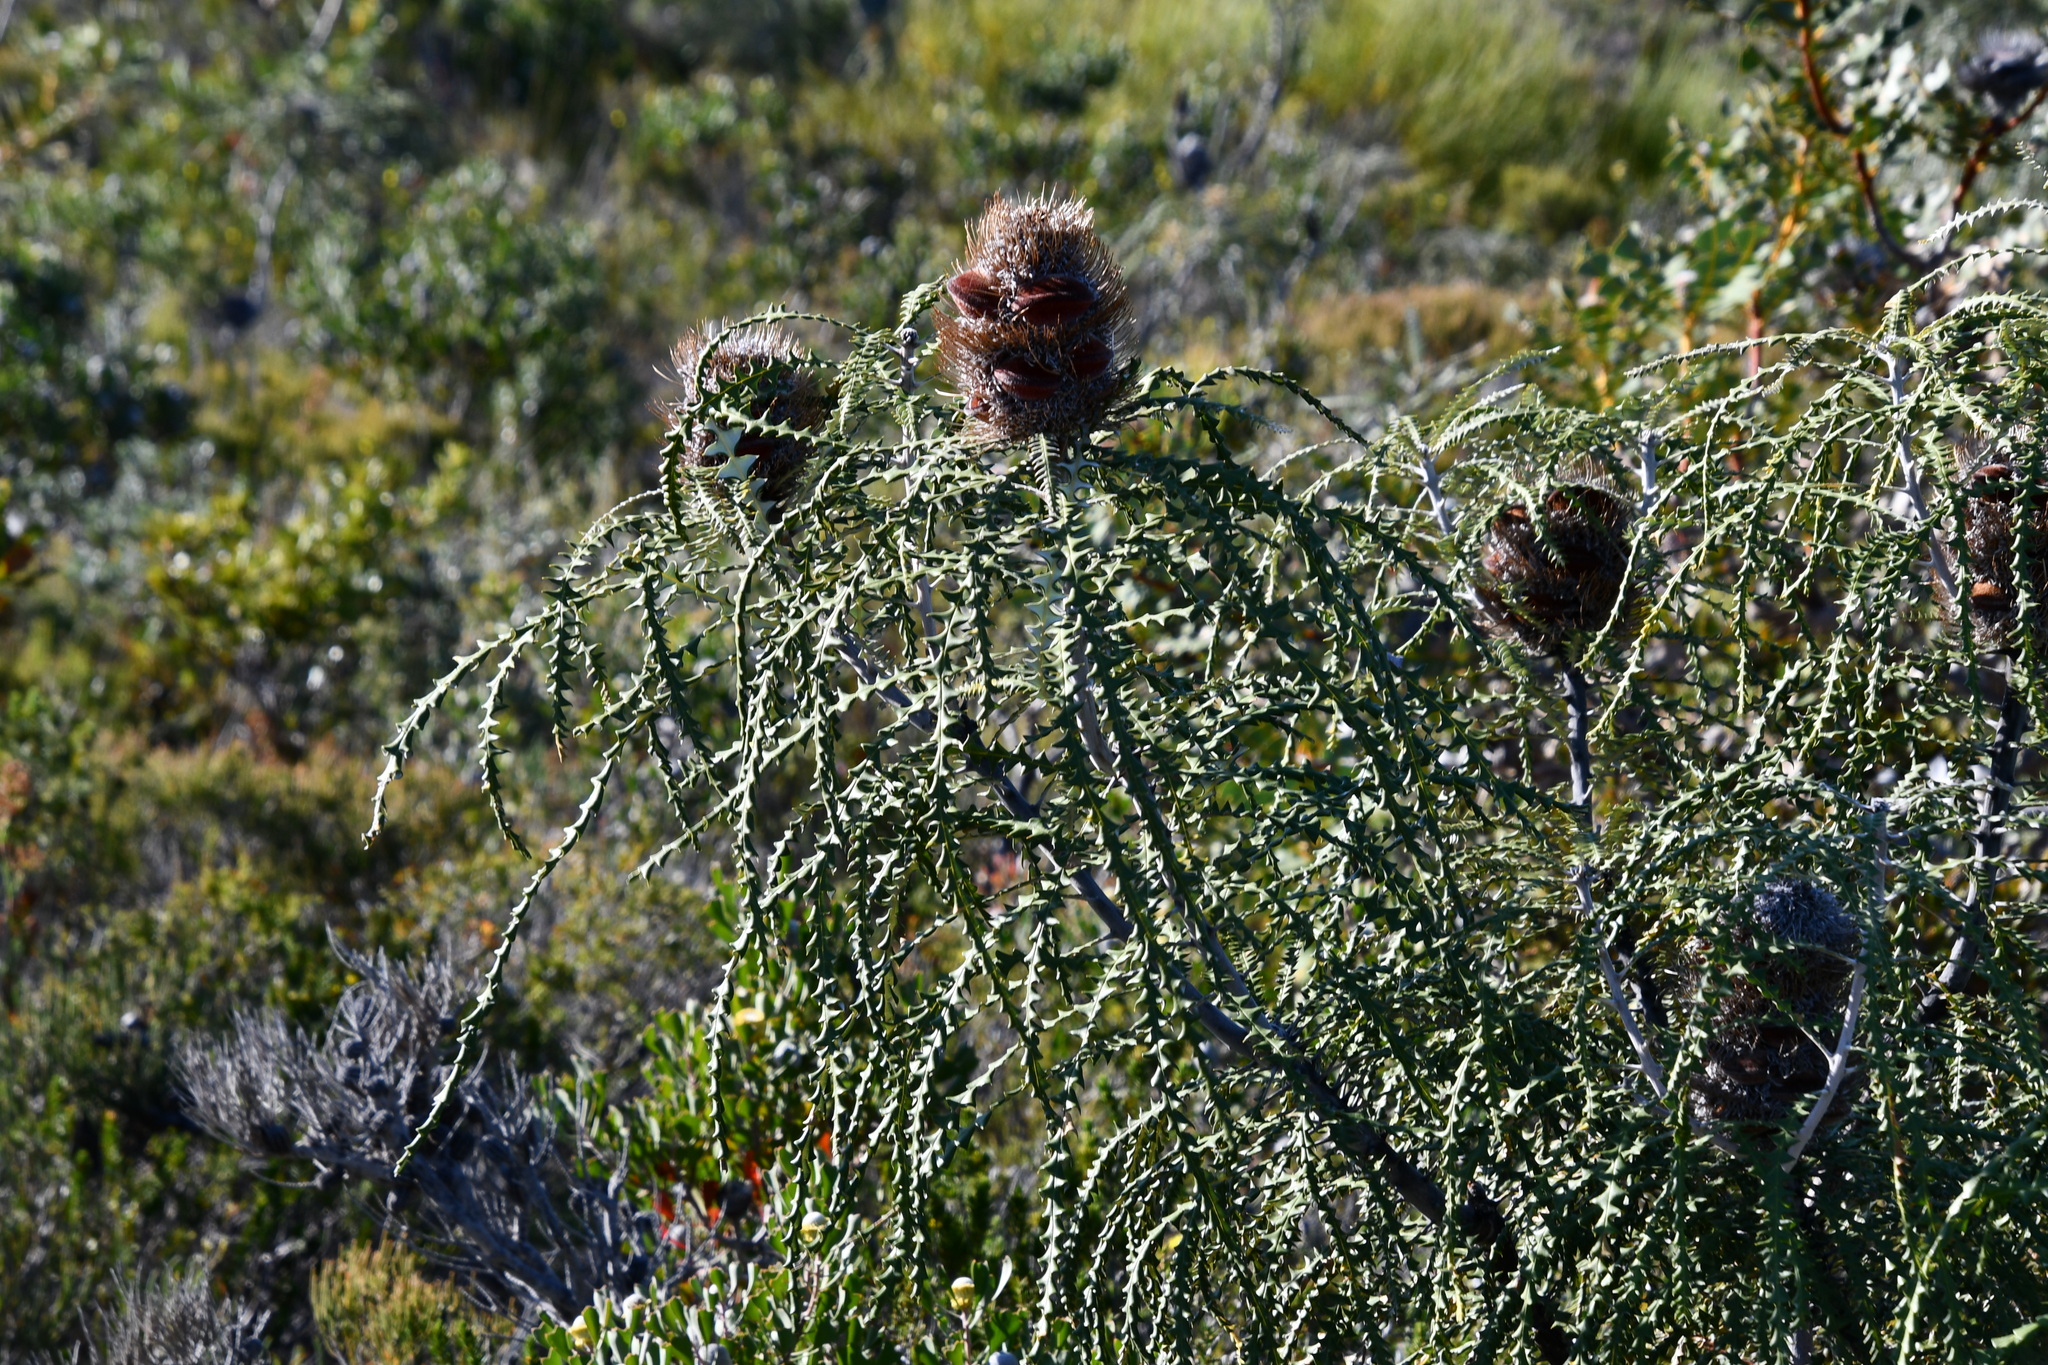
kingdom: Plantae
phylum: Tracheophyta
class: Magnoliopsida
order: Proteales
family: Proteaceae
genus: Banksia
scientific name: Banksia speciosa
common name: Showy banksia
